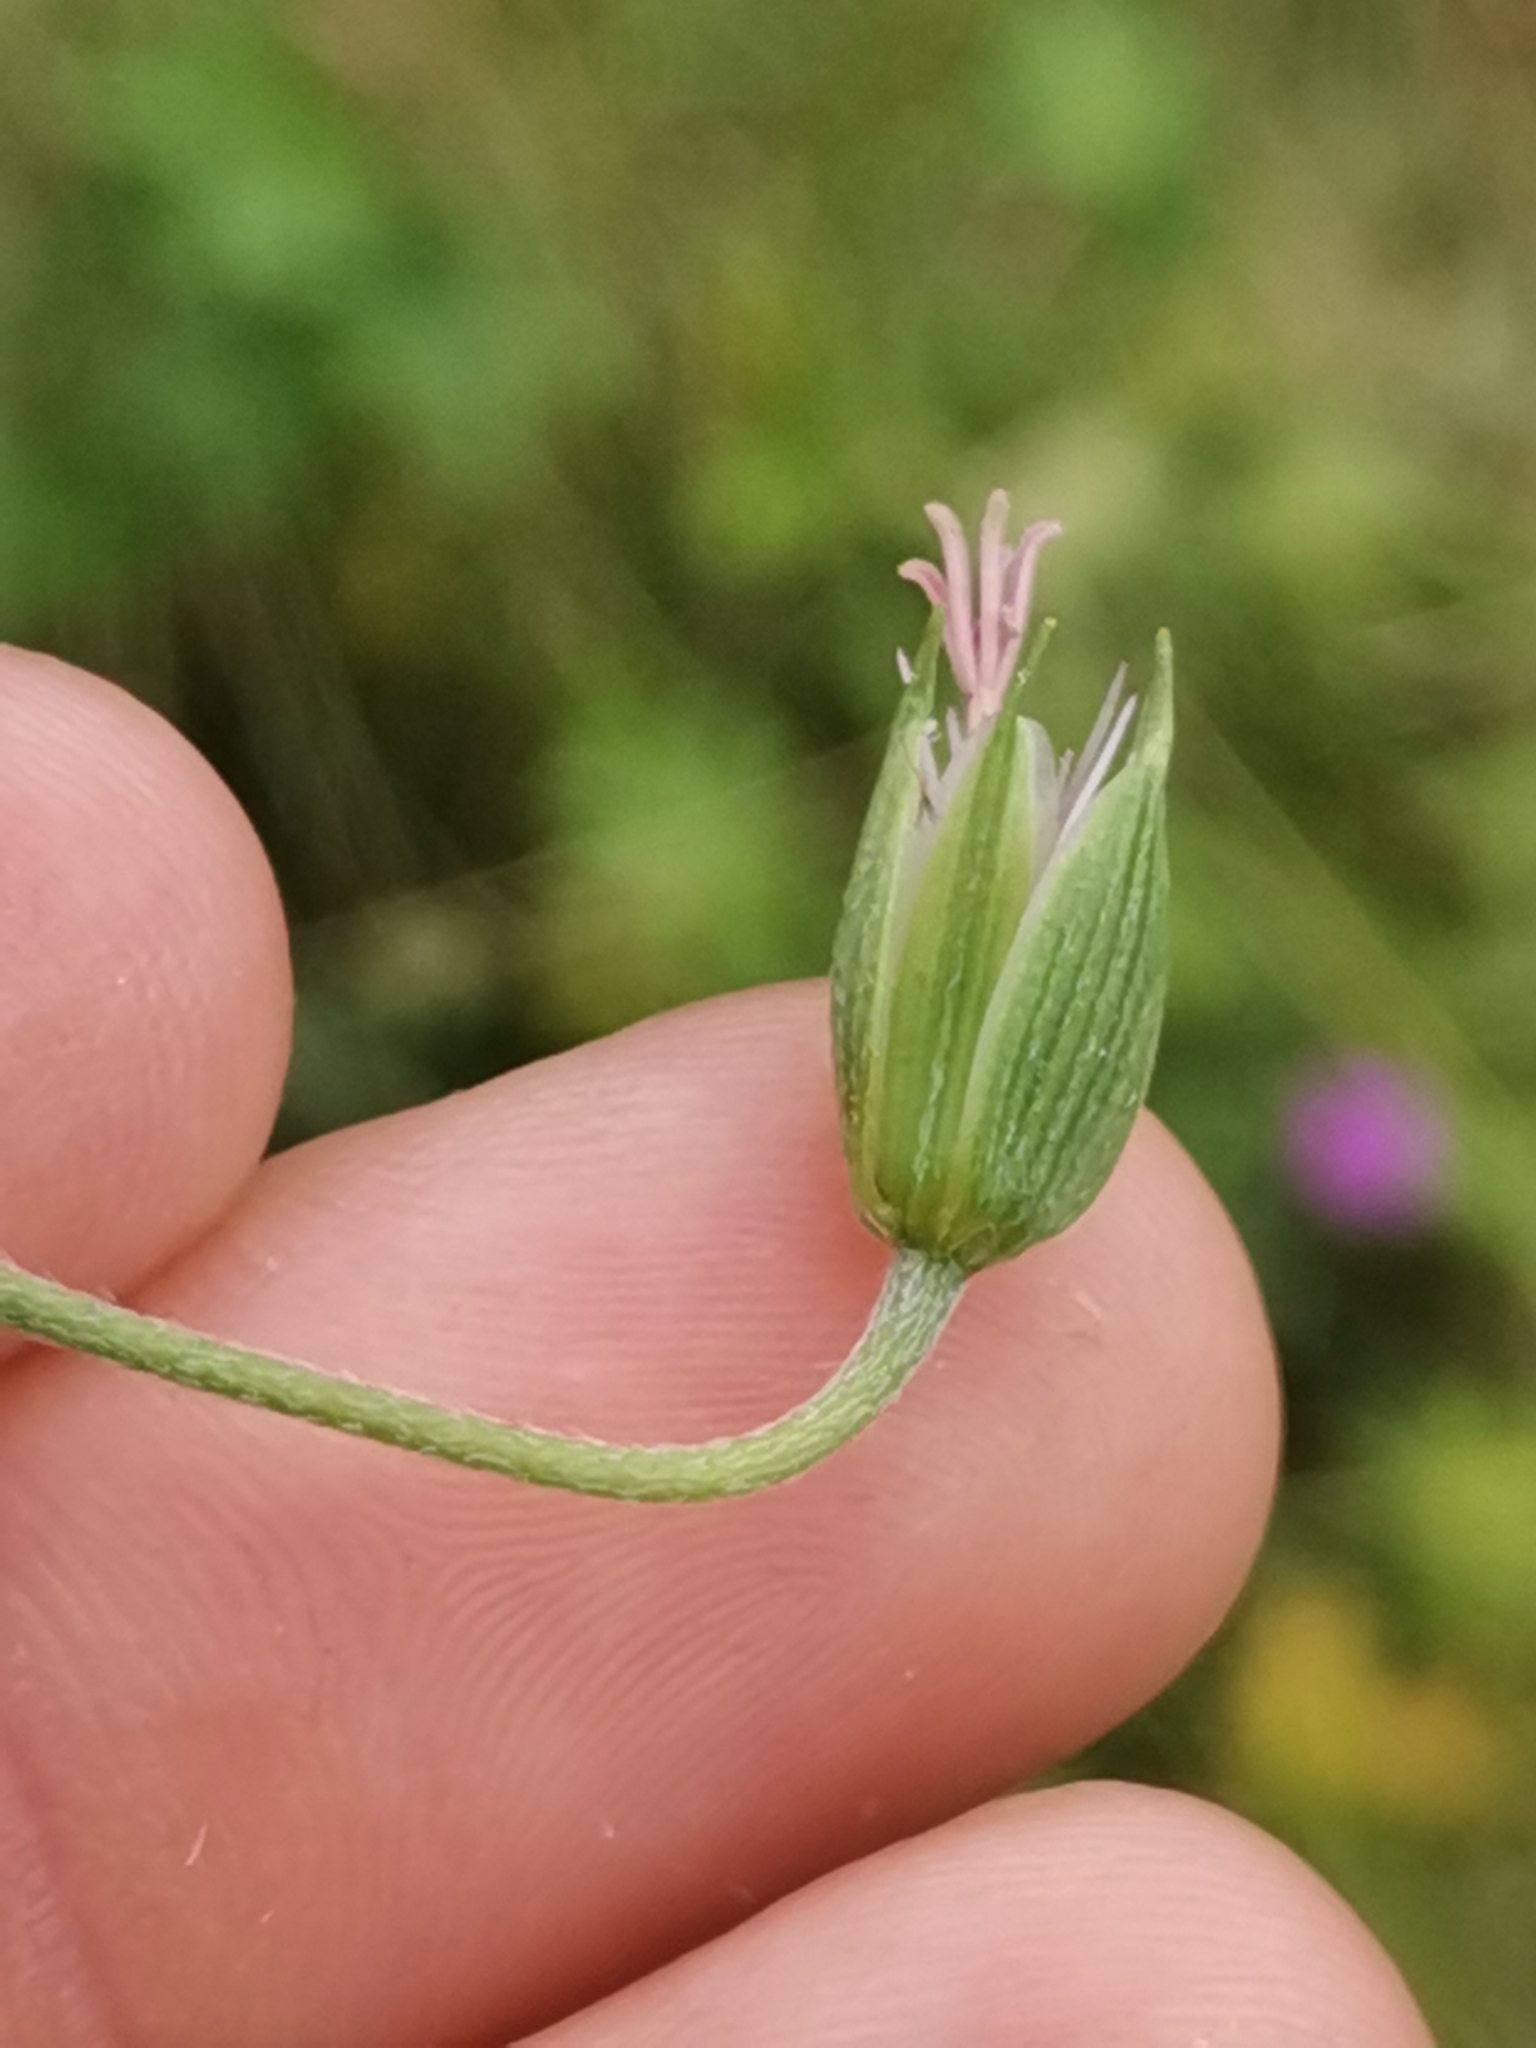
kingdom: Plantae
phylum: Tracheophyta
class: Magnoliopsida
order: Geraniales
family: Geraniaceae
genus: Geranium
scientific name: Geranium palustre
